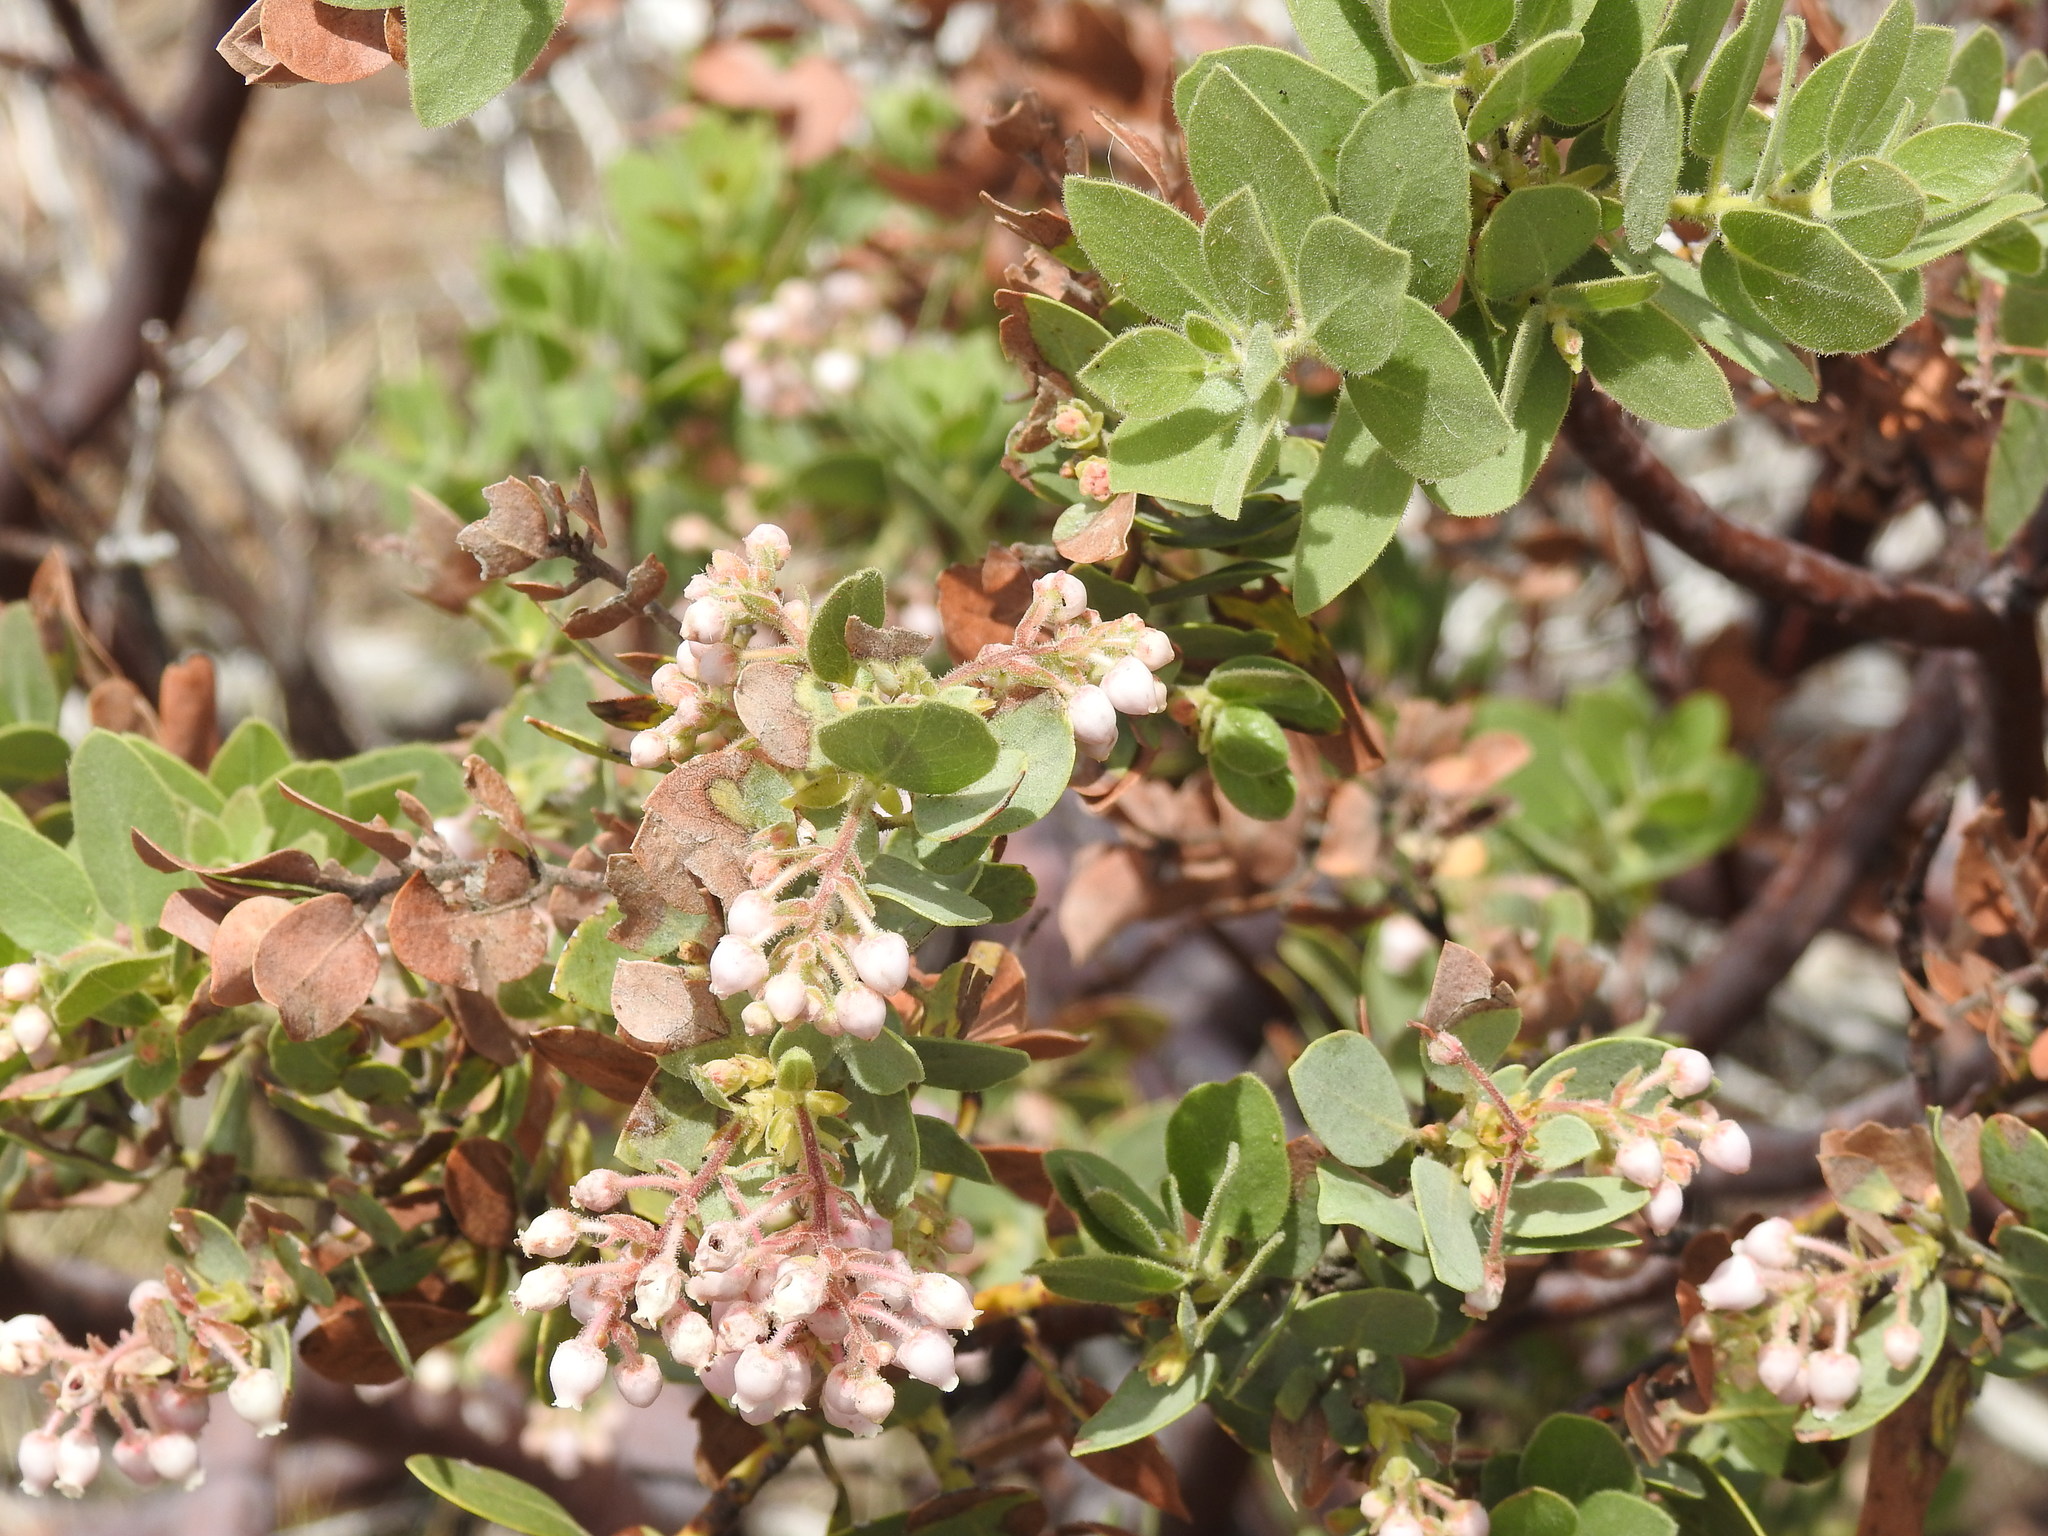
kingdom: Plantae
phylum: Tracheophyta
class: Magnoliopsida
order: Ericales
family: Ericaceae
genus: Arctostaphylos
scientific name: Arctostaphylos pringlei
